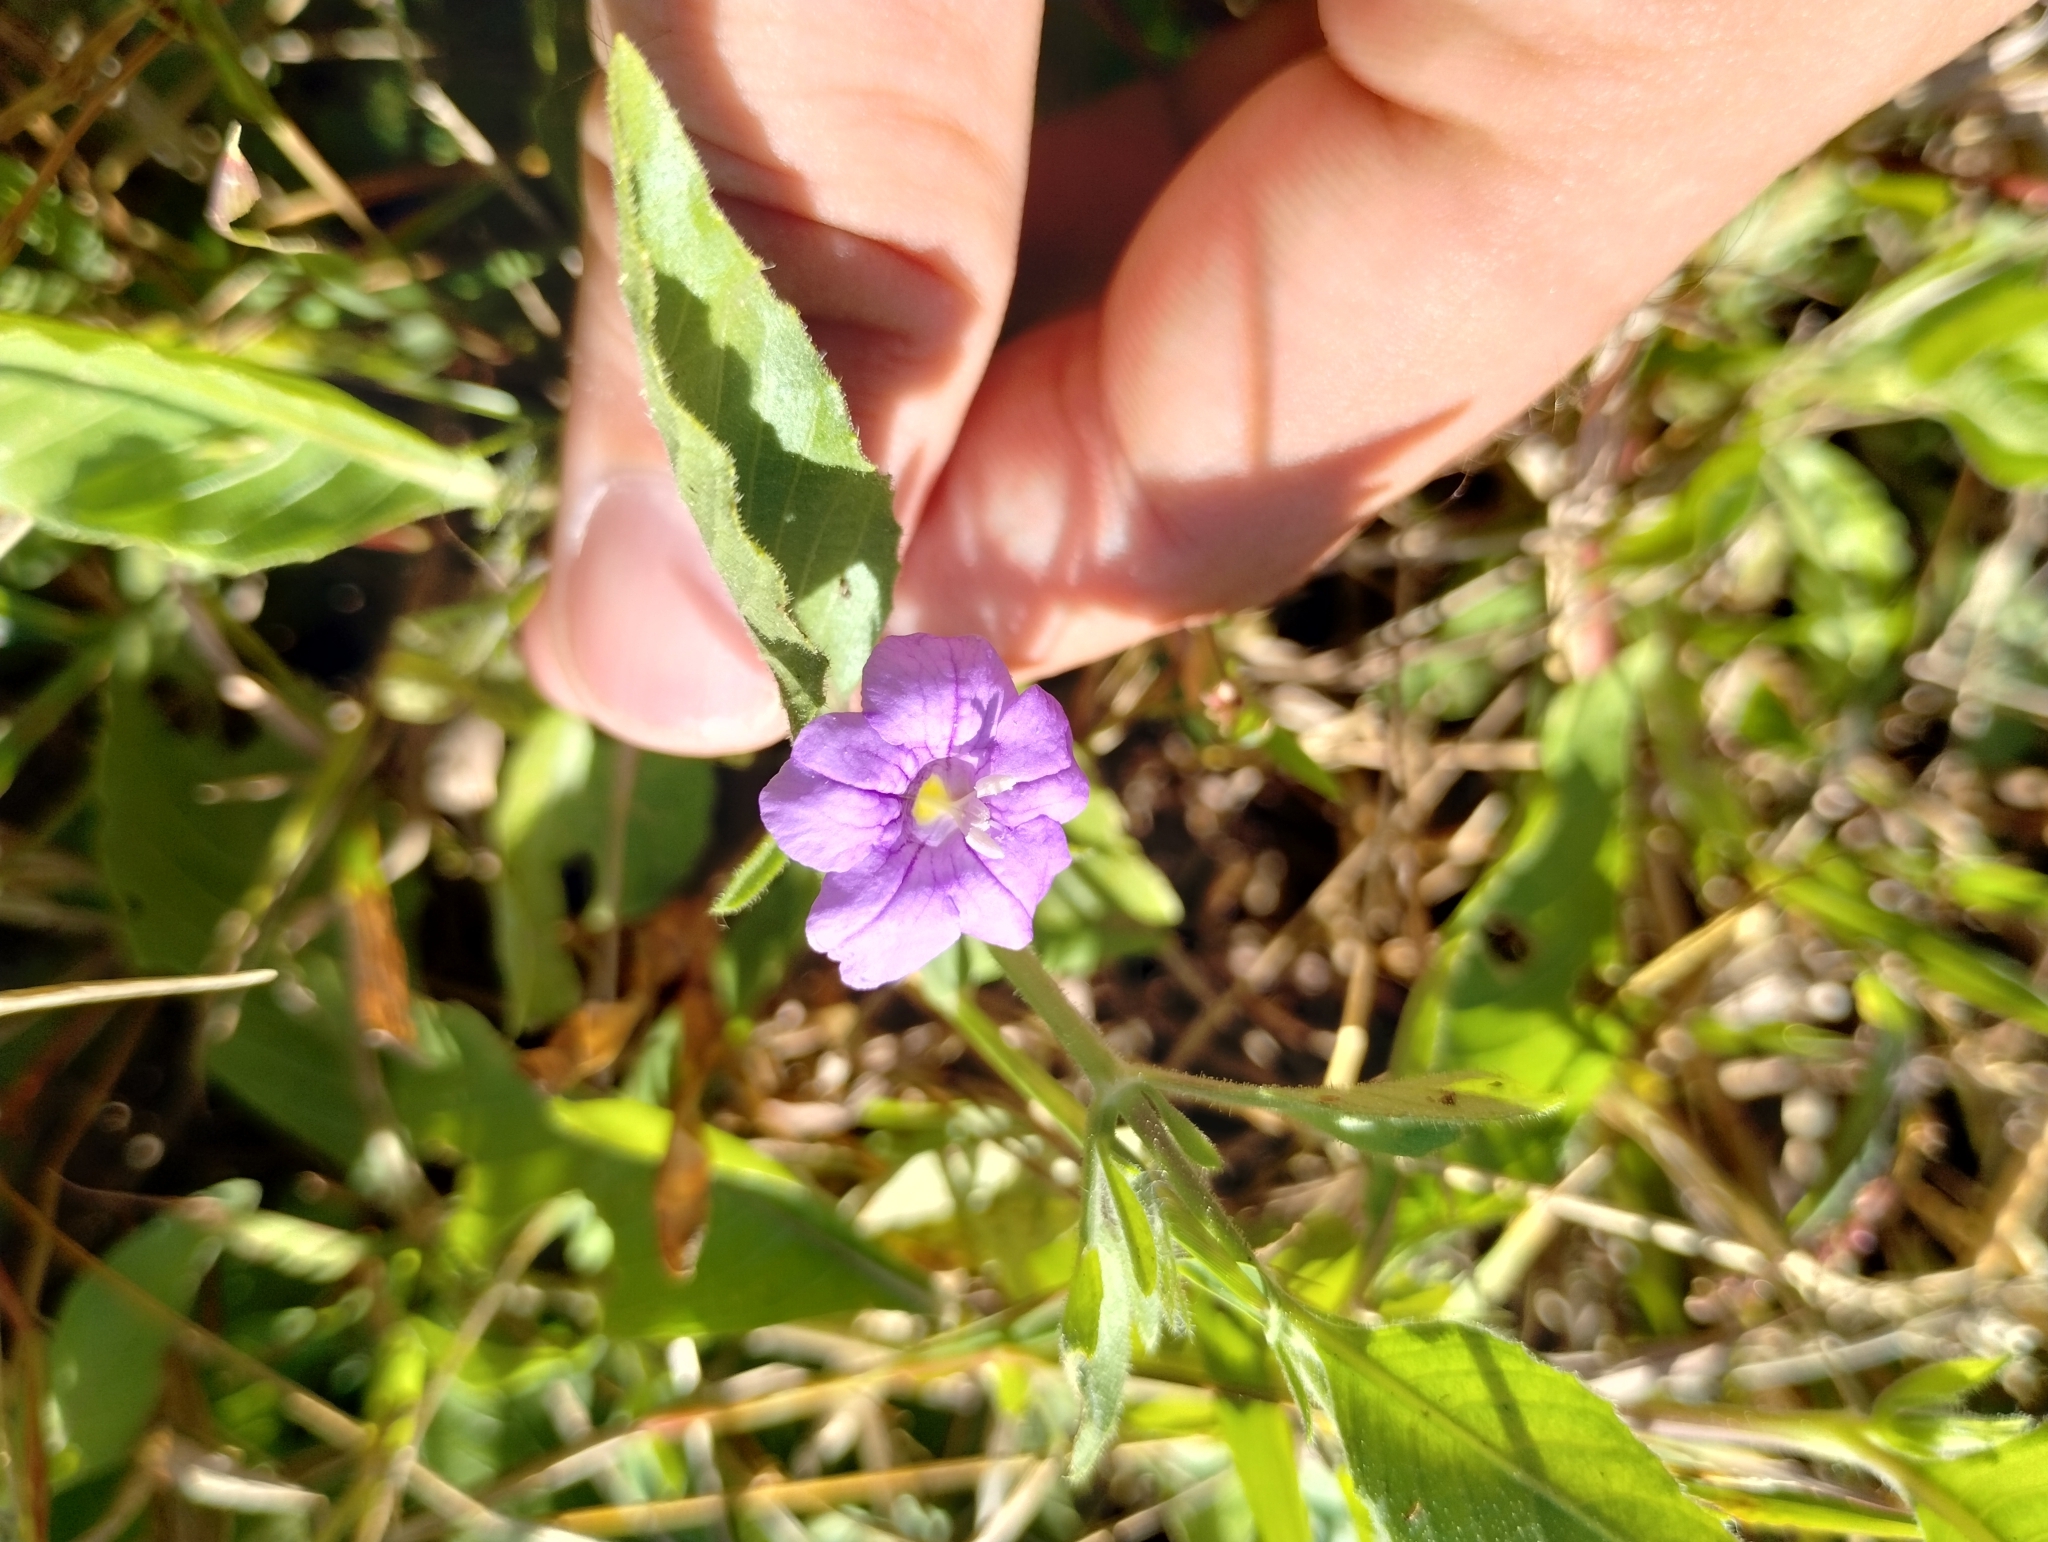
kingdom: Plantae
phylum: Tracheophyta
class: Magnoliopsida
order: Lamiales
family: Acanthaceae
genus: Ruellia
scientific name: Ruellia viscidula
